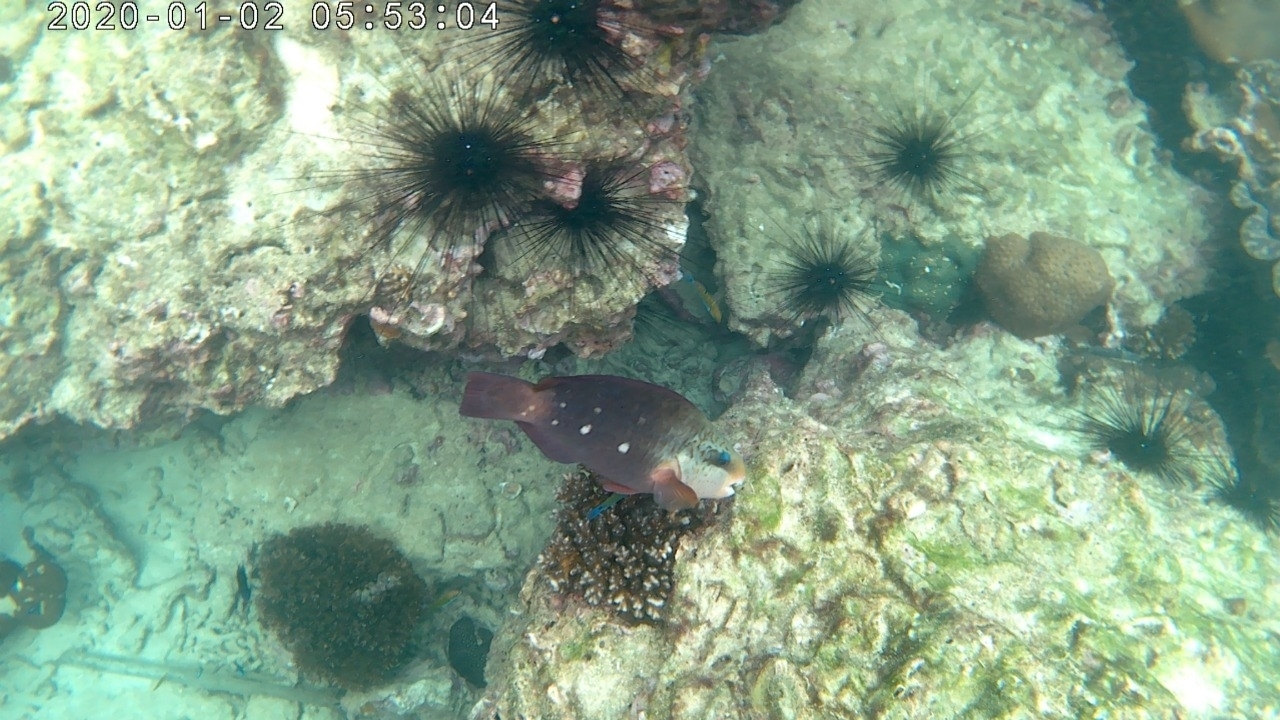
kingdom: Animalia
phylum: Chordata
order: Perciformes
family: Scaridae
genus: Chlorurus
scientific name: Chlorurus sordidus
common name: Bullethead parrotfish
